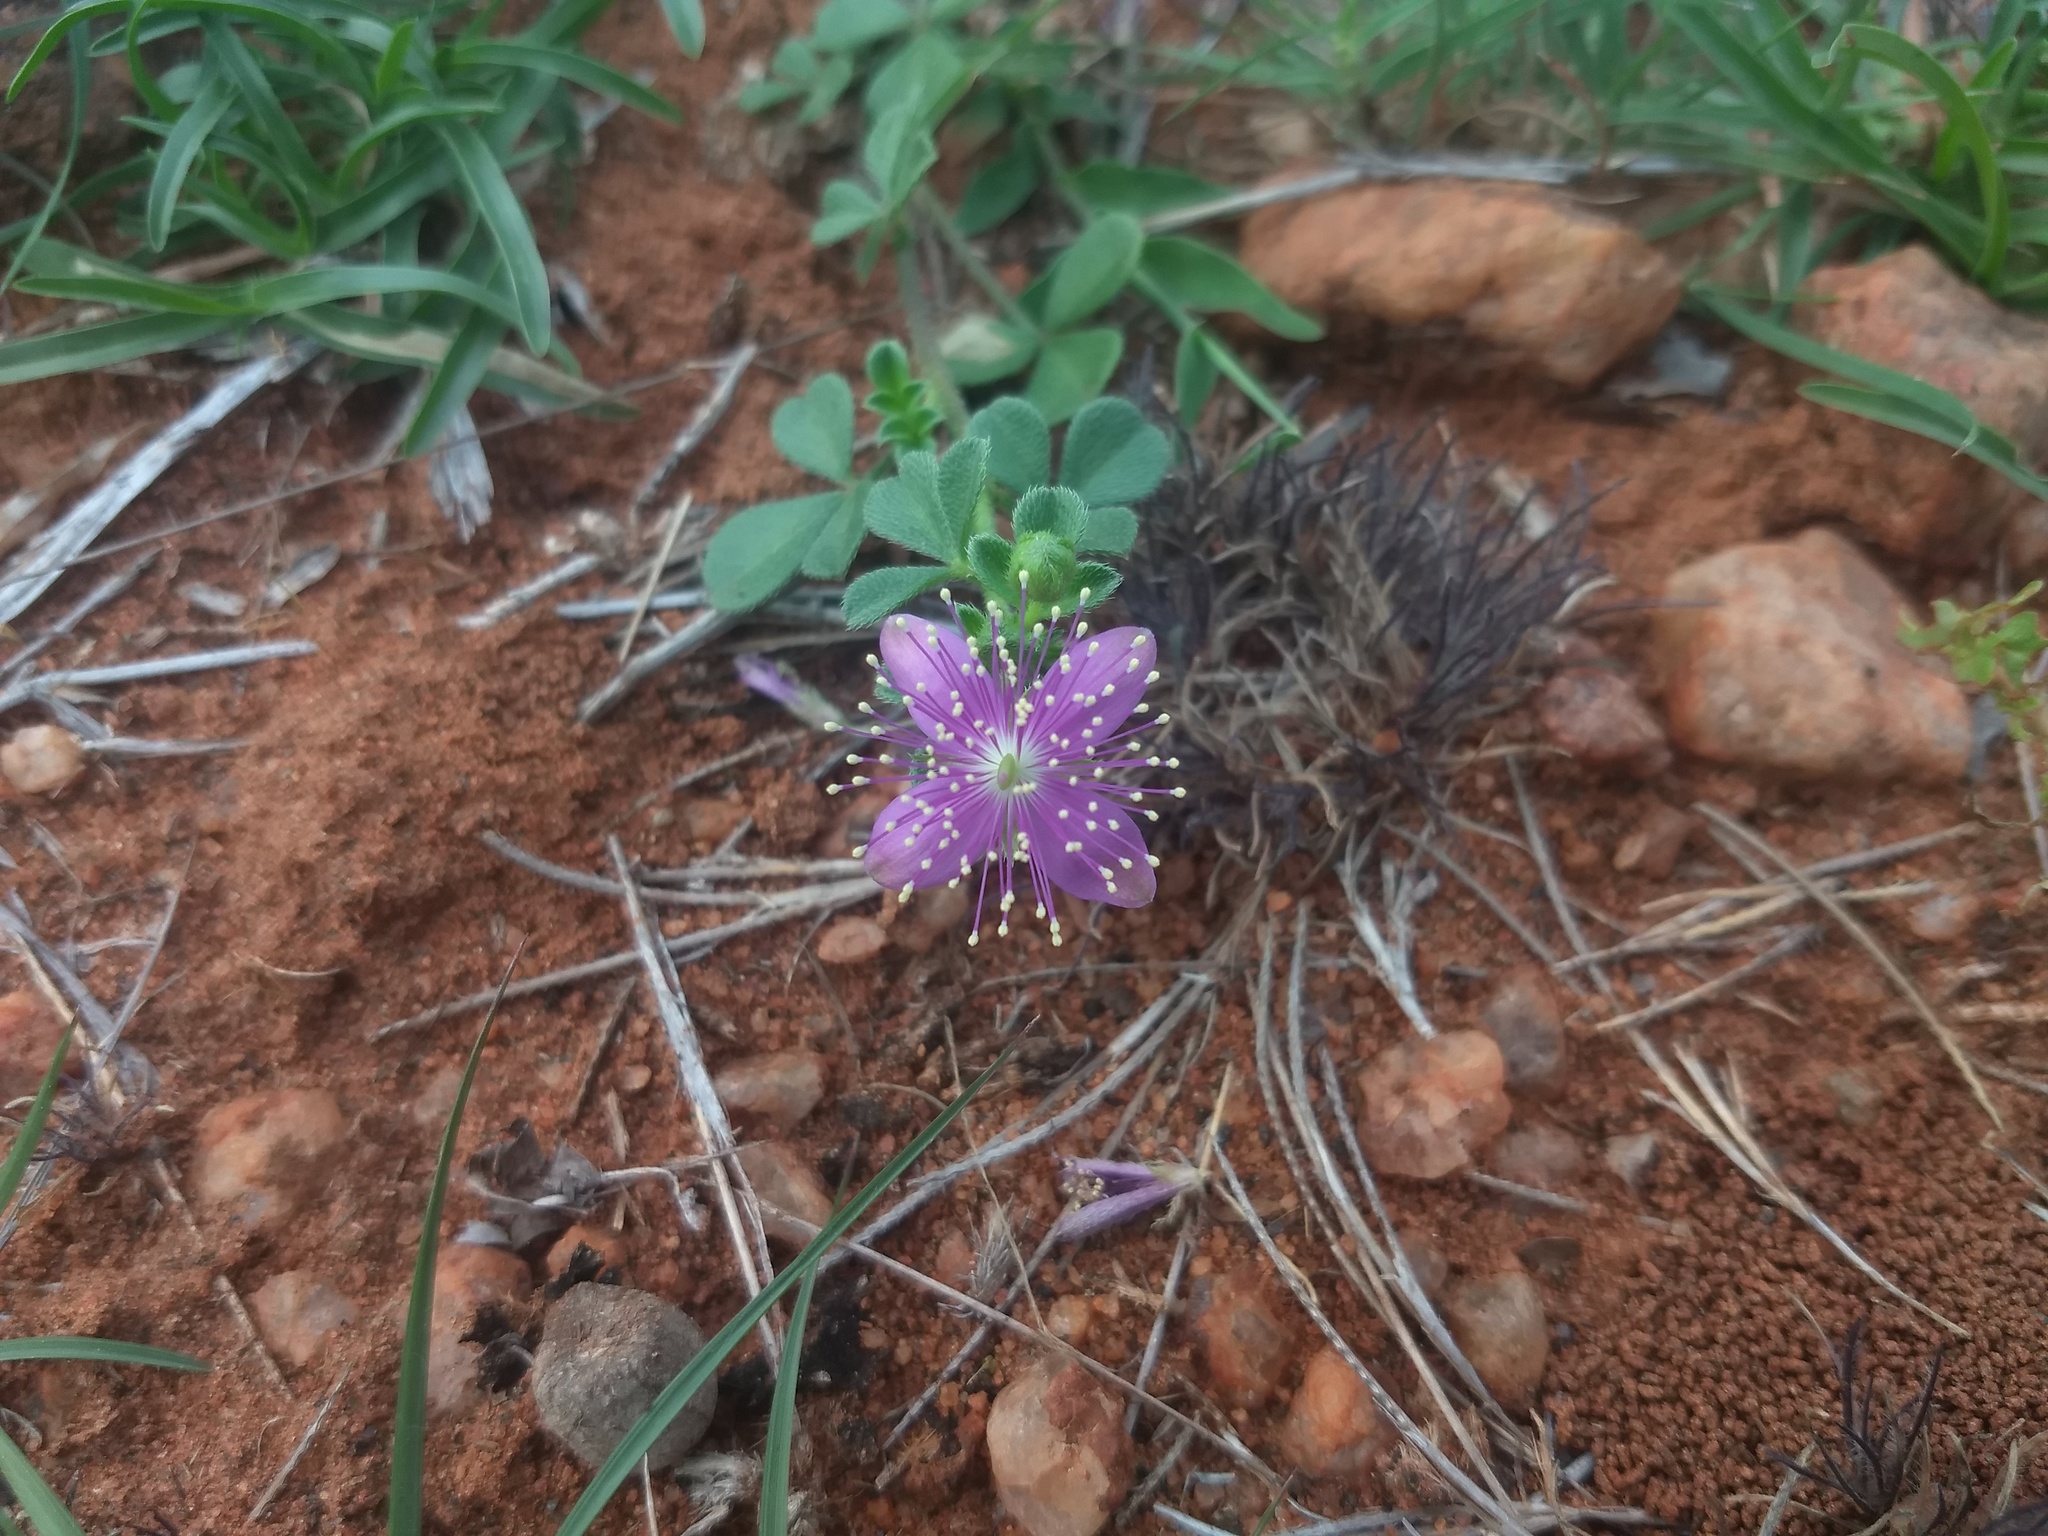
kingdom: Plantae
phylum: Tracheophyta
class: Magnoliopsida
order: Brassicales
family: Cleomaceae
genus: Corynandra
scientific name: Corynandra felina
